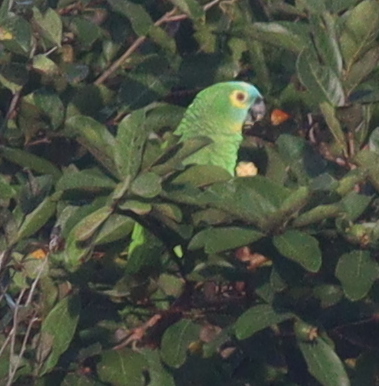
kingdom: Animalia
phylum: Chordata
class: Aves
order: Psittaciformes
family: Psittacidae
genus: Amazona
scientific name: Amazona aestiva
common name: Turquoise-fronted amazon
